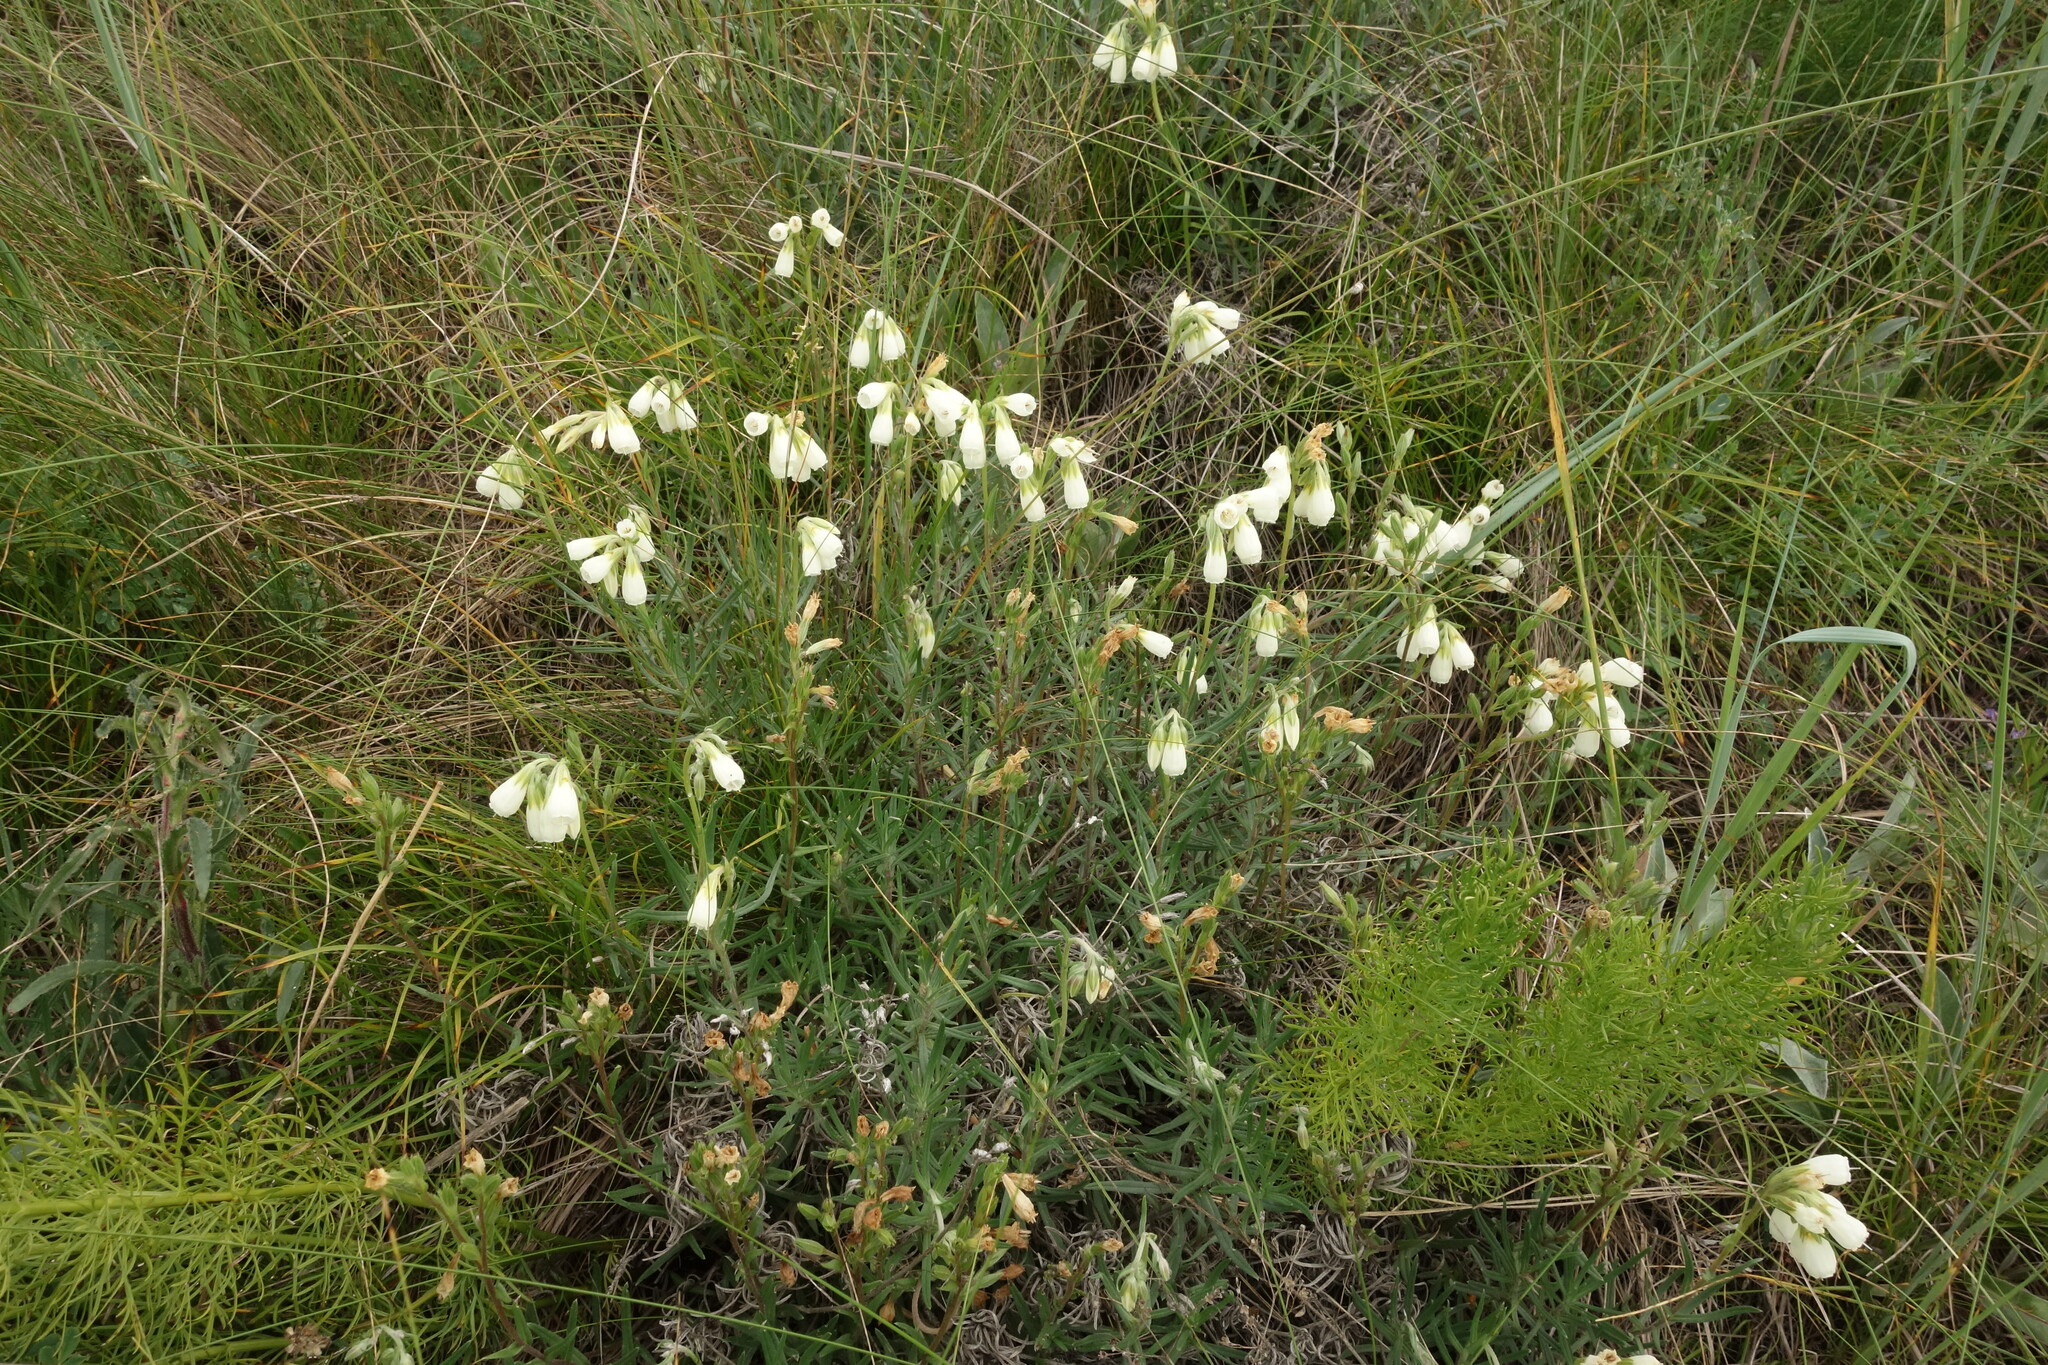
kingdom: Plantae
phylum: Tracheophyta
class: Magnoliopsida
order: Boraginales
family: Boraginaceae
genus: Onosma
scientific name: Onosma simplicissima
